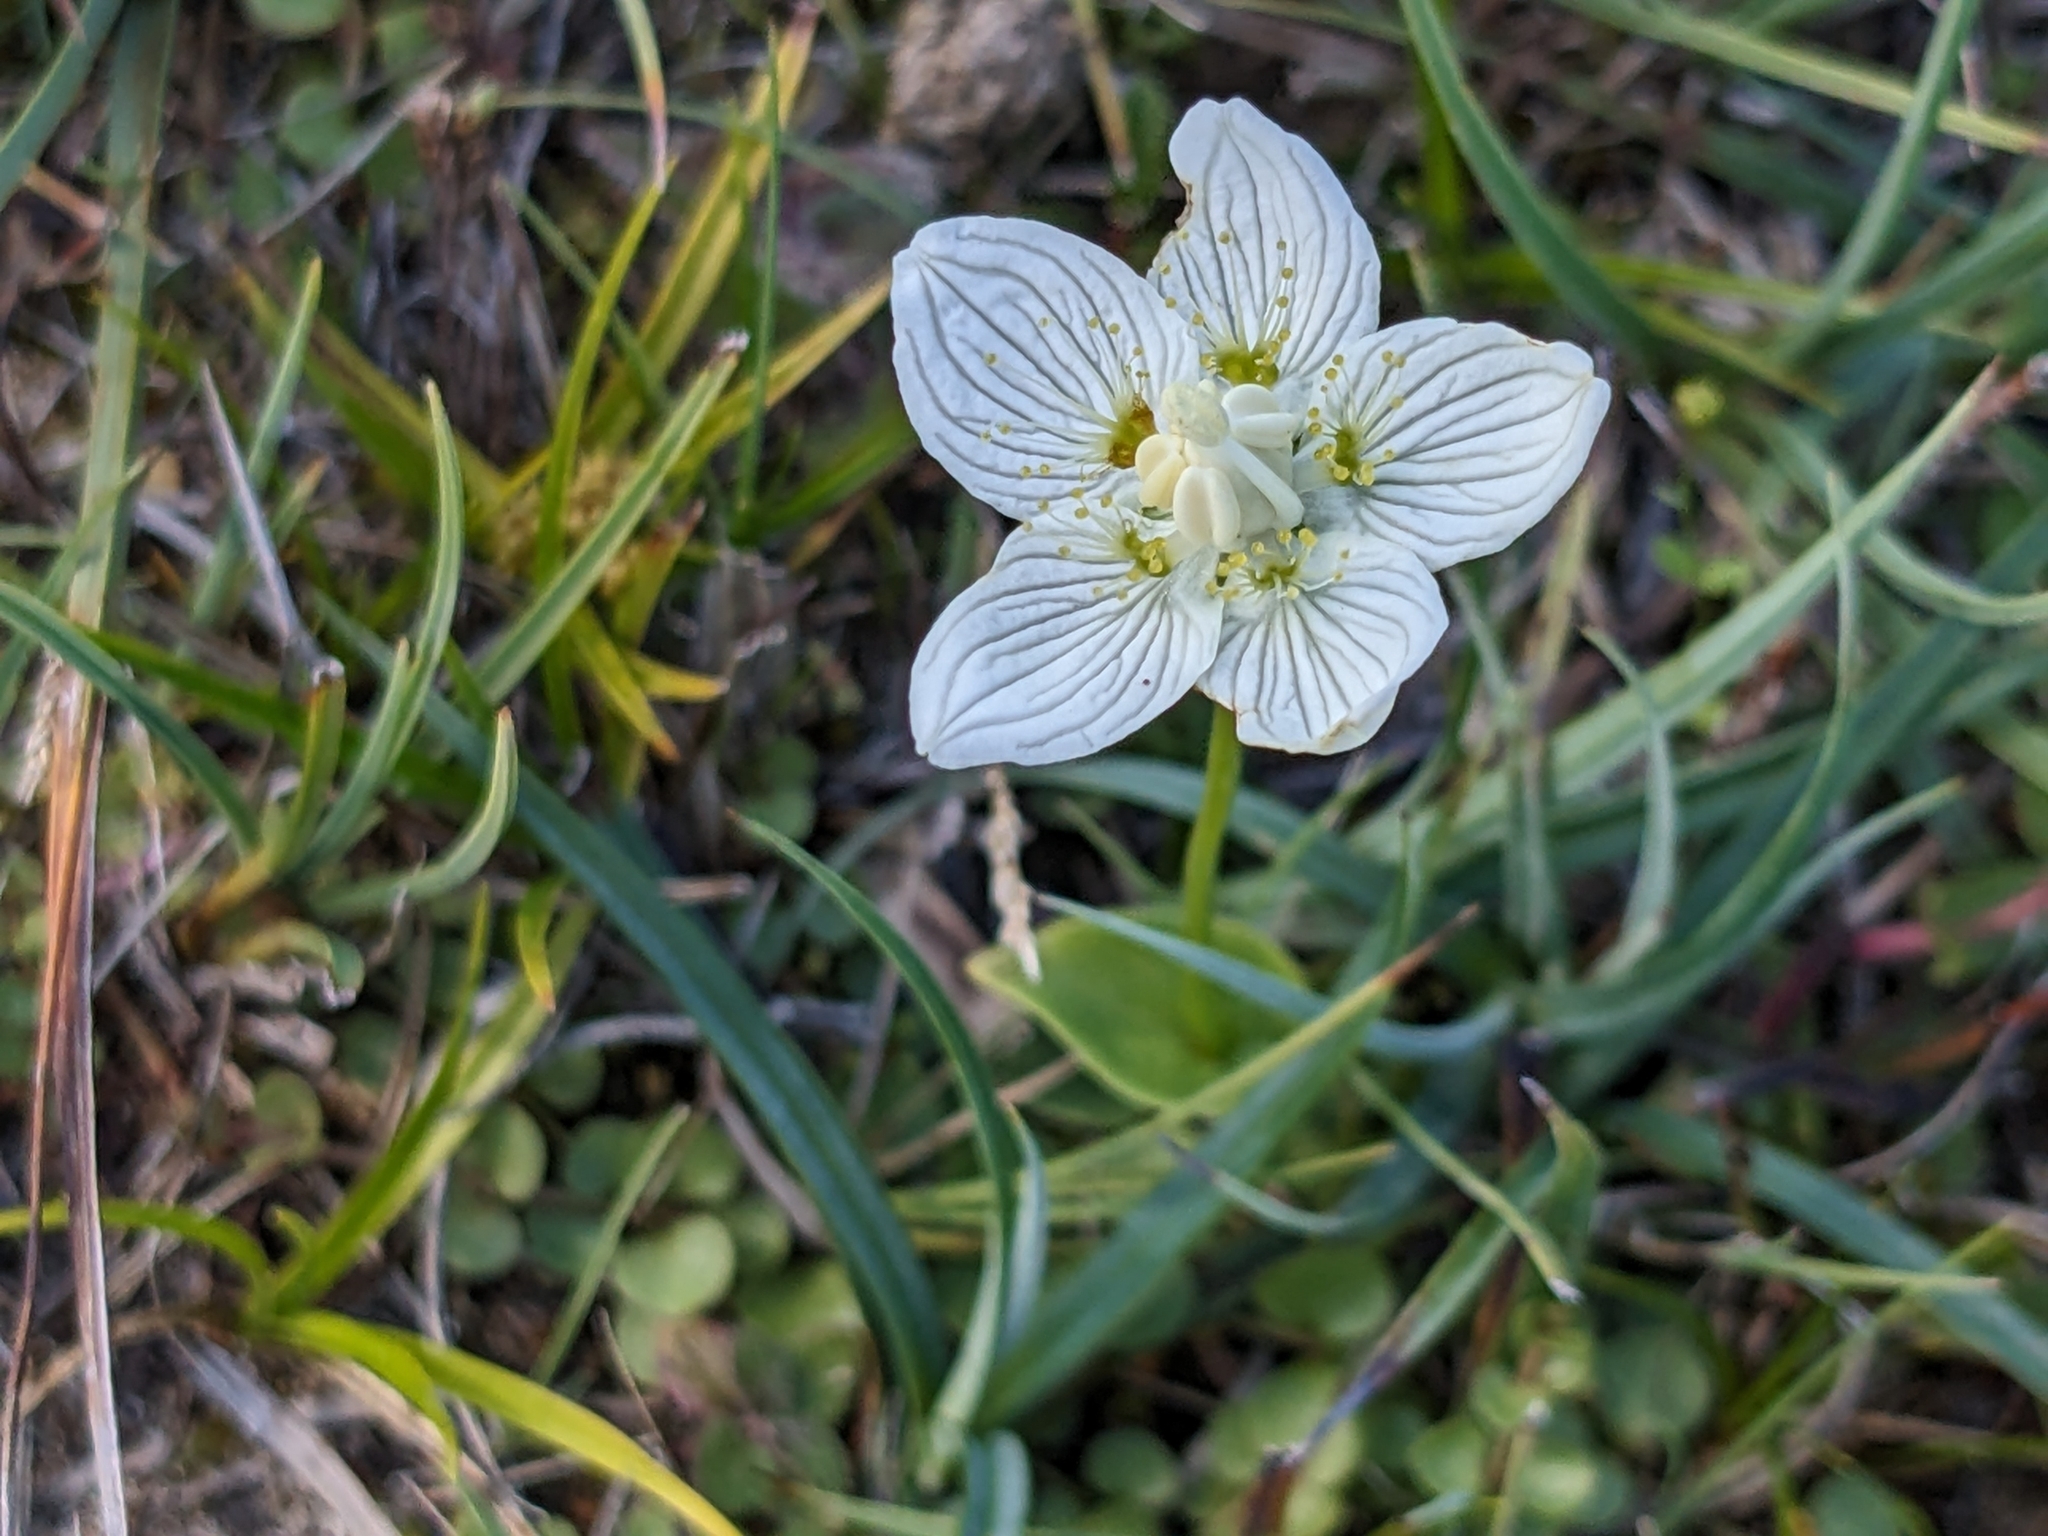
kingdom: Plantae
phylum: Tracheophyta
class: Magnoliopsida
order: Celastrales
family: Parnassiaceae
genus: Parnassia
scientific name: Parnassia palustris
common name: Grass-of-parnassus
